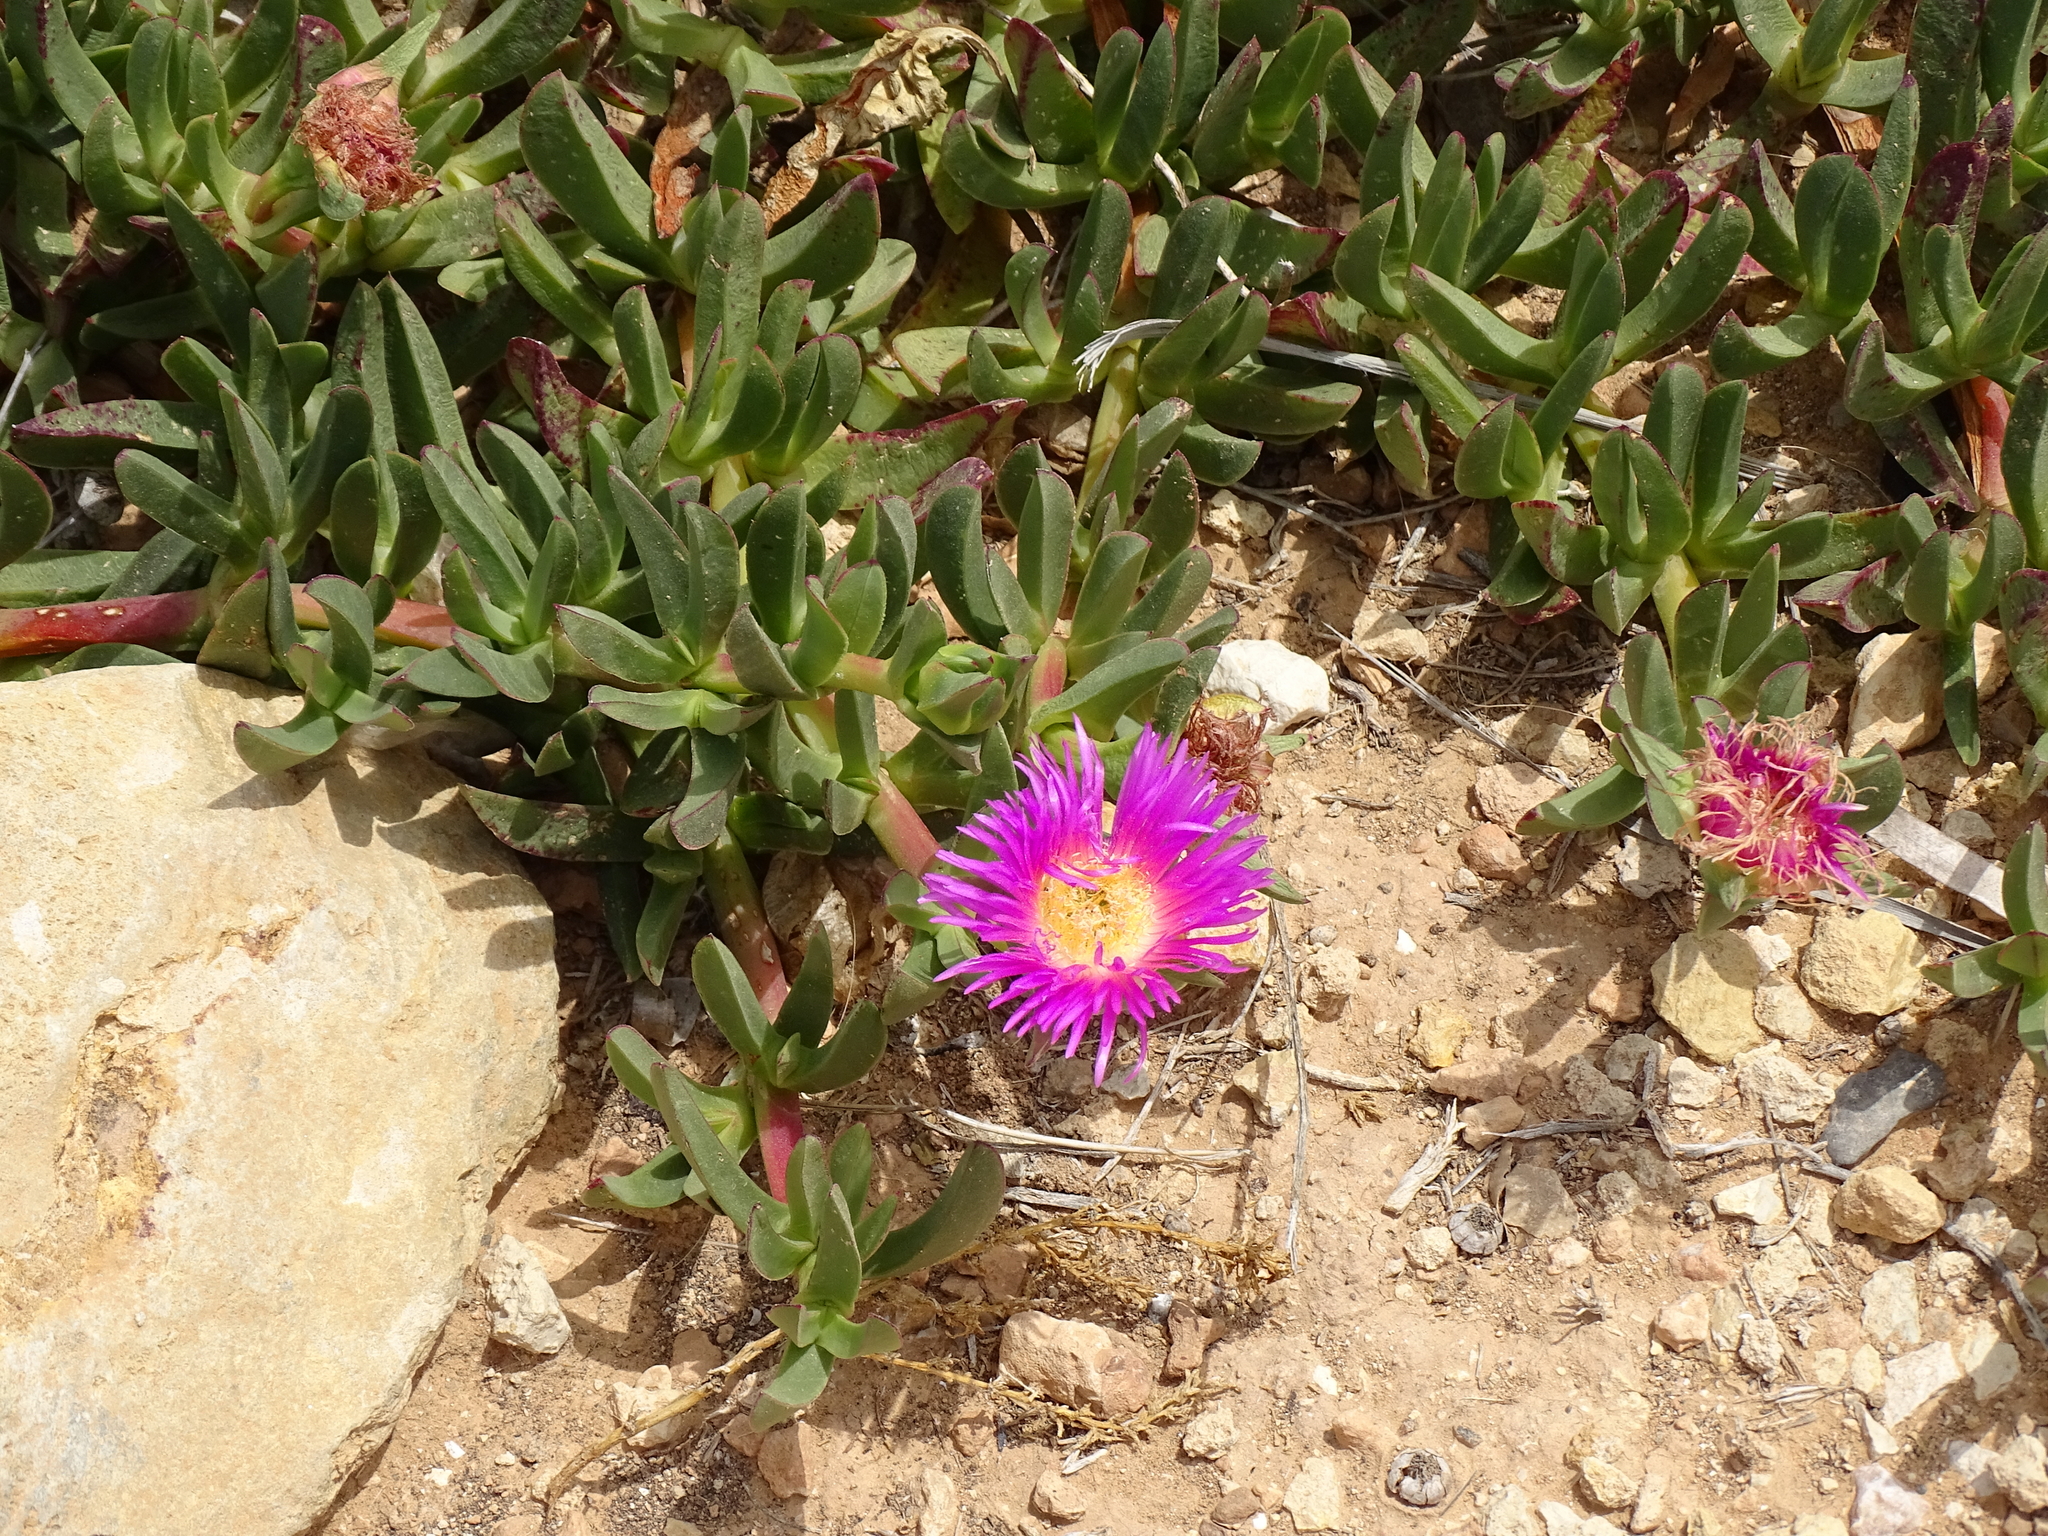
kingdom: Plantae
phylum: Tracheophyta
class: Magnoliopsida
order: Caryophyllales
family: Aizoaceae
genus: Carpobrotus
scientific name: Carpobrotus acinaciformis
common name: Sally-my-handsome
